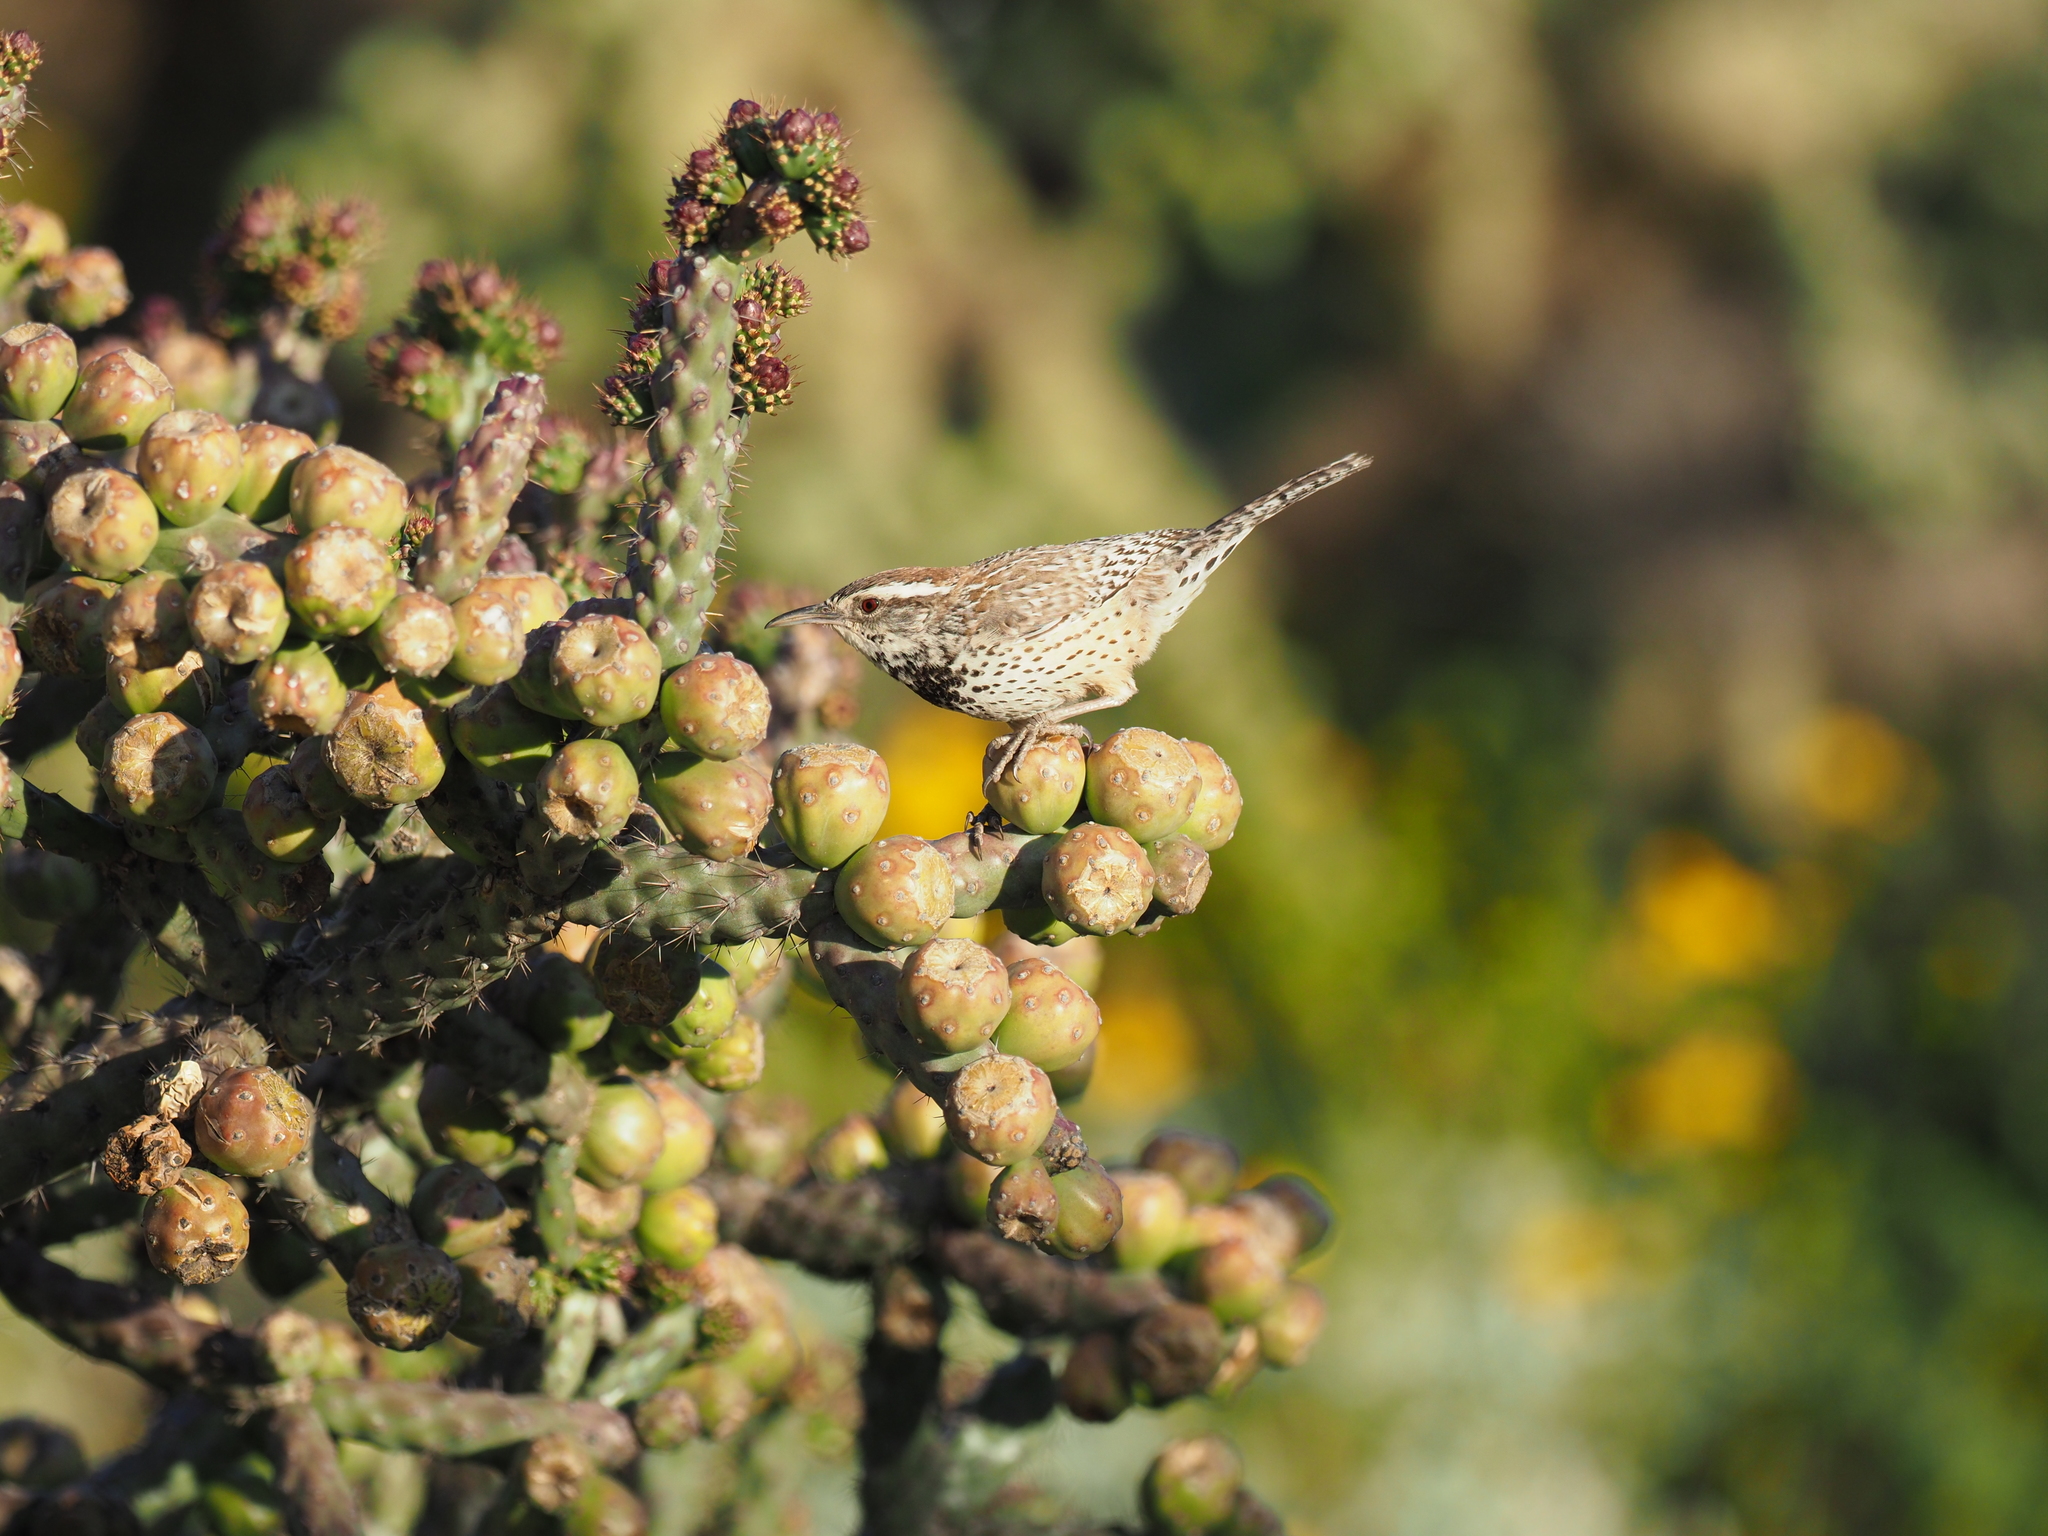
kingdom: Animalia
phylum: Chordata
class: Aves
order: Passeriformes
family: Troglodytidae
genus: Campylorhynchus
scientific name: Campylorhynchus brunneicapillus
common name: Cactus wren
